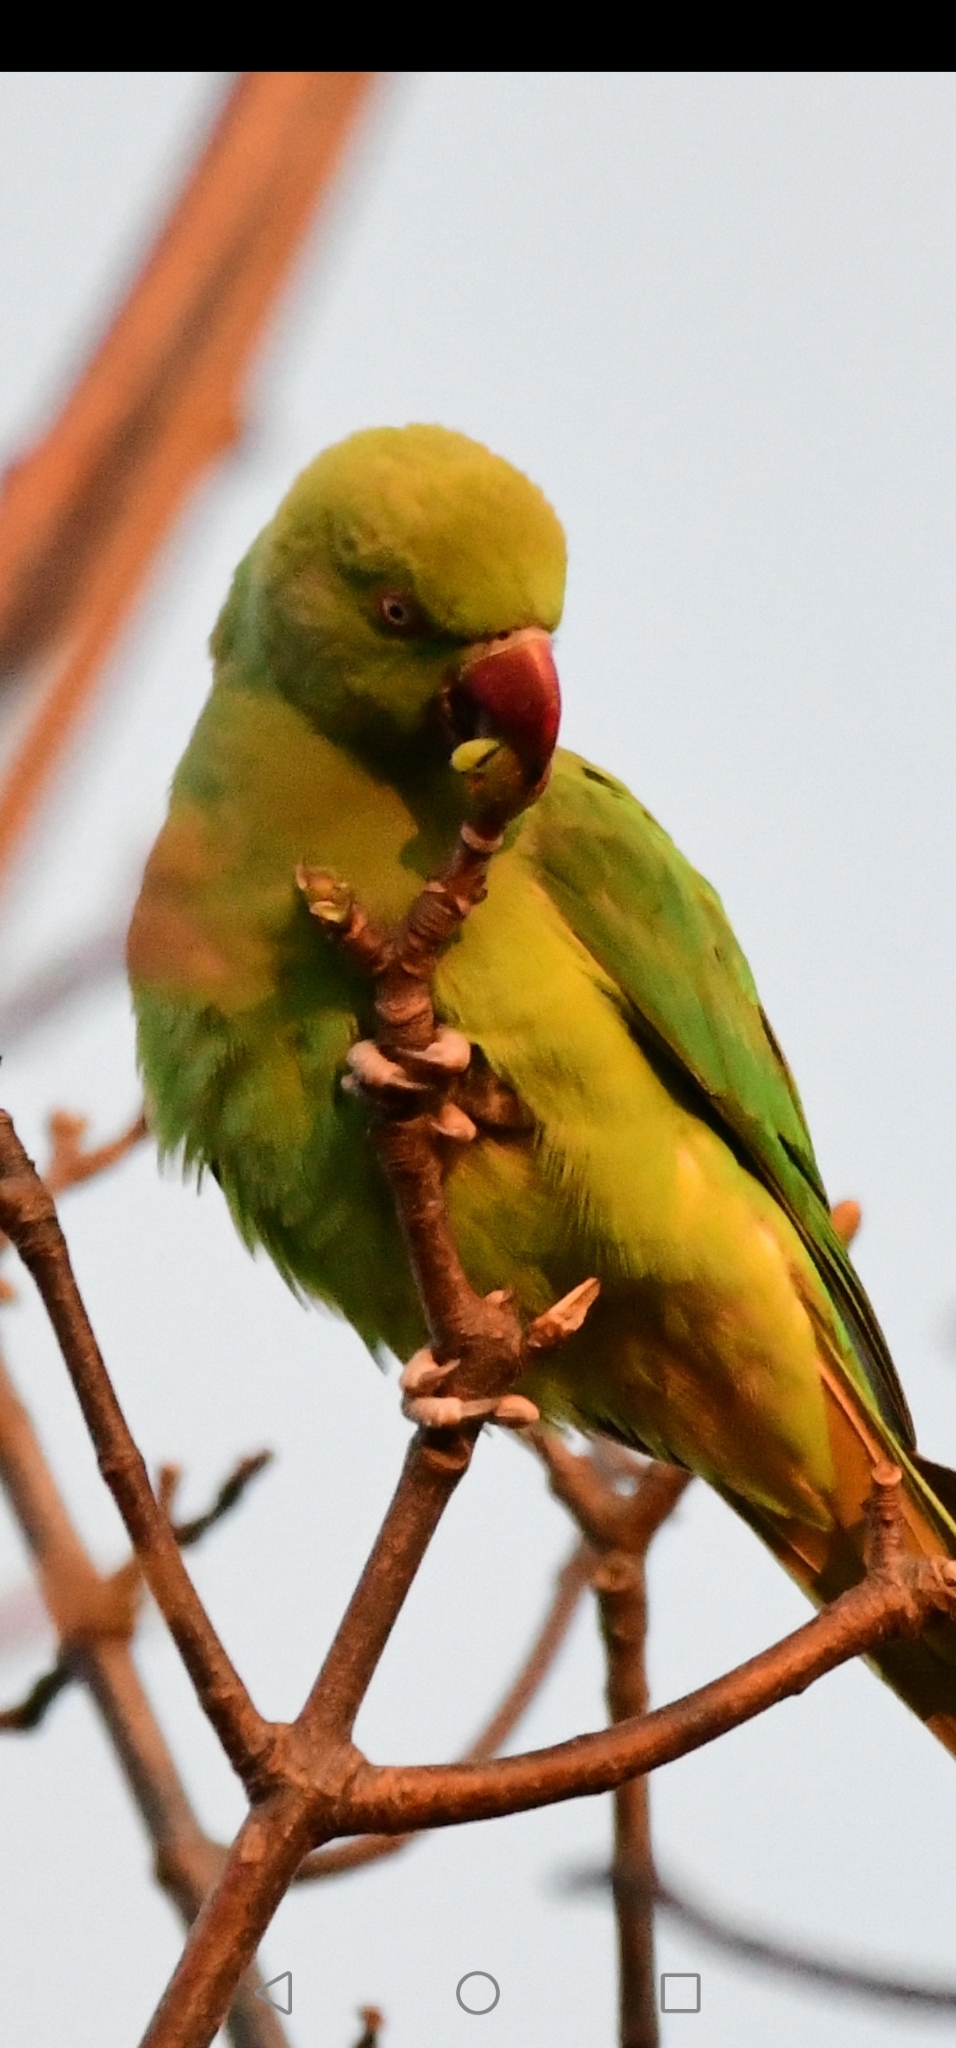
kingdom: Animalia
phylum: Chordata
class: Aves
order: Psittaciformes
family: Psittacidae
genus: Psittacula
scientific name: Psittacula krameri
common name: Rose-ringed parakeet
